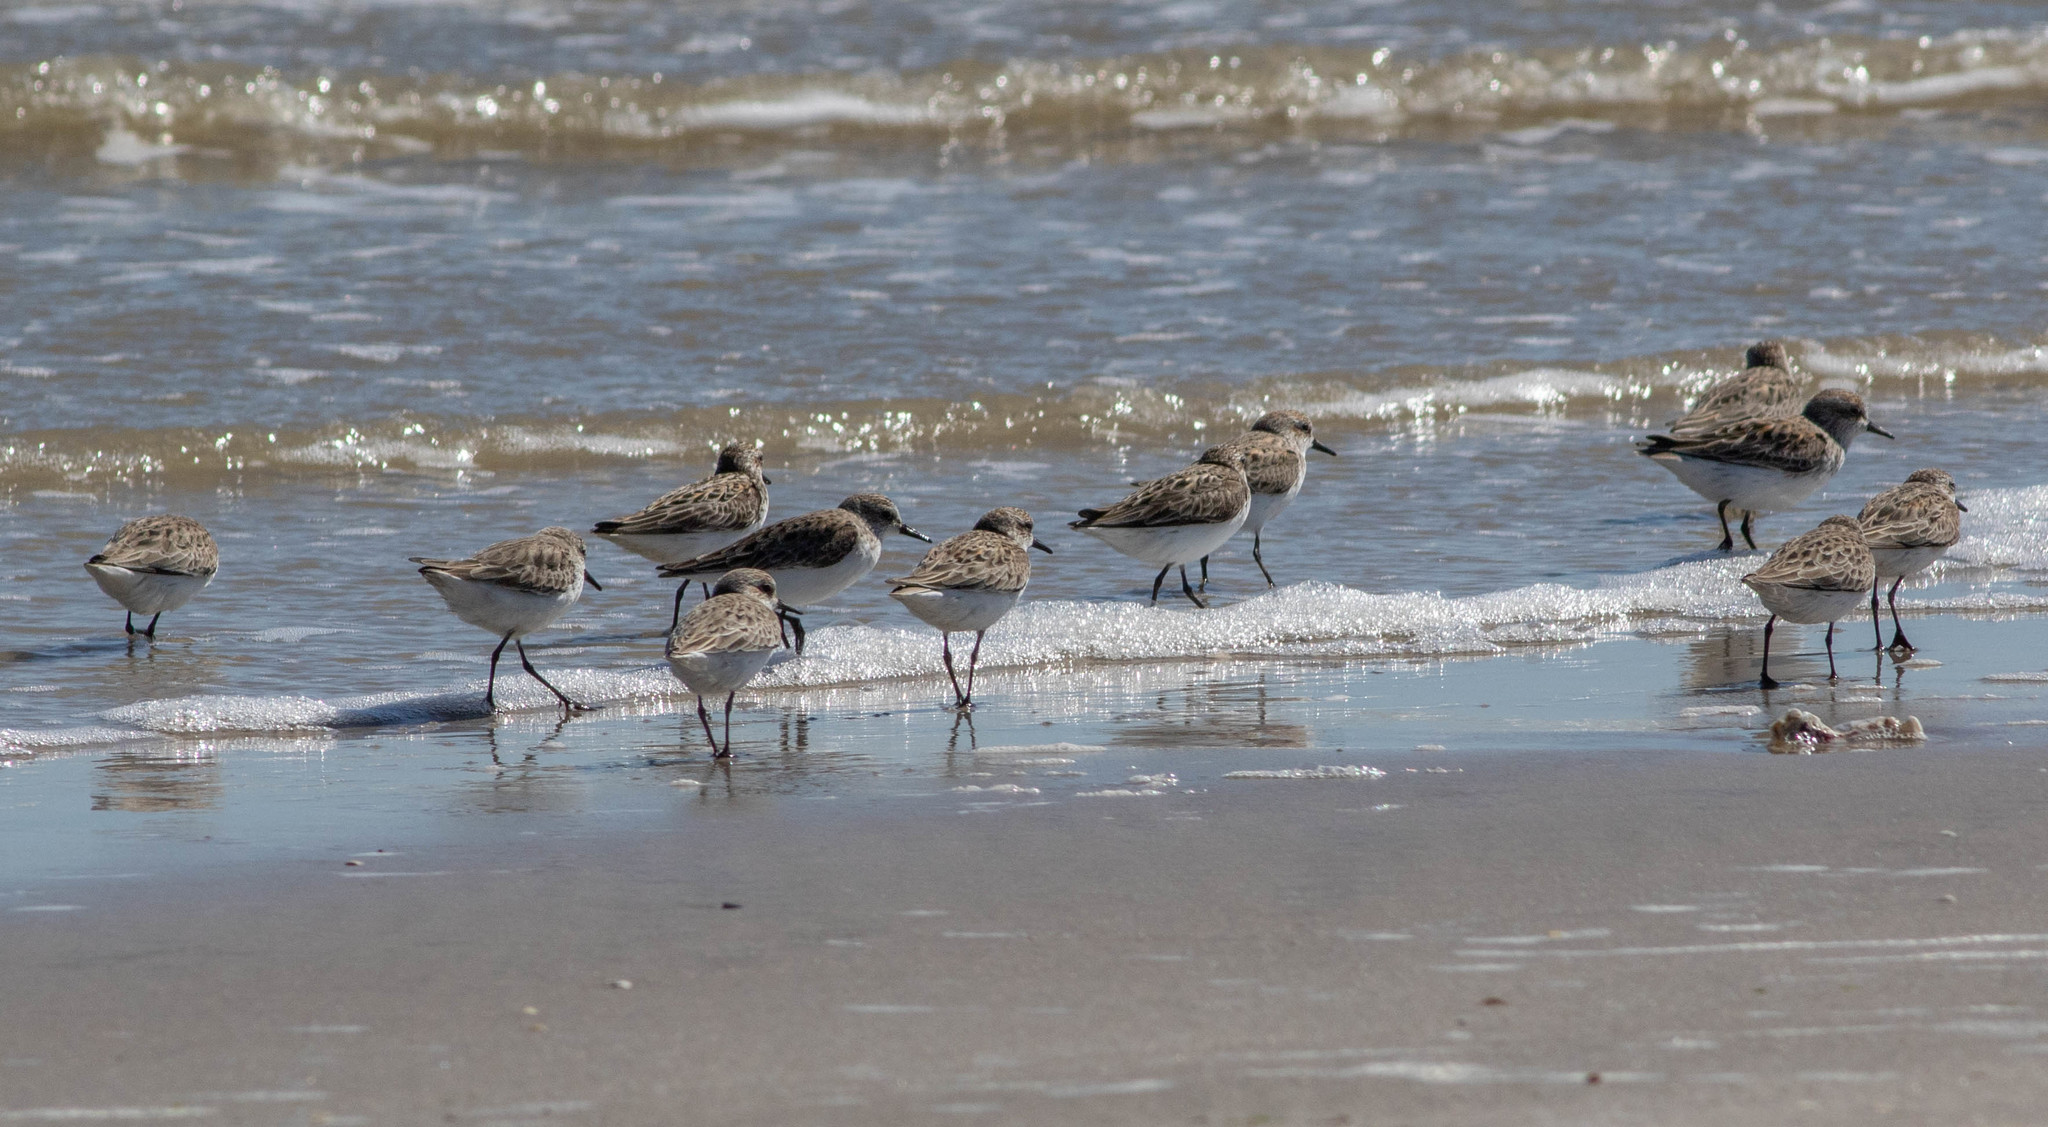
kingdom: Animalia
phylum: Chordata
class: Aves
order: Charadriiformes
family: Scolopacidae
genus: Calidris
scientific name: Calidris pusilla
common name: Semipalmated sandpiper
